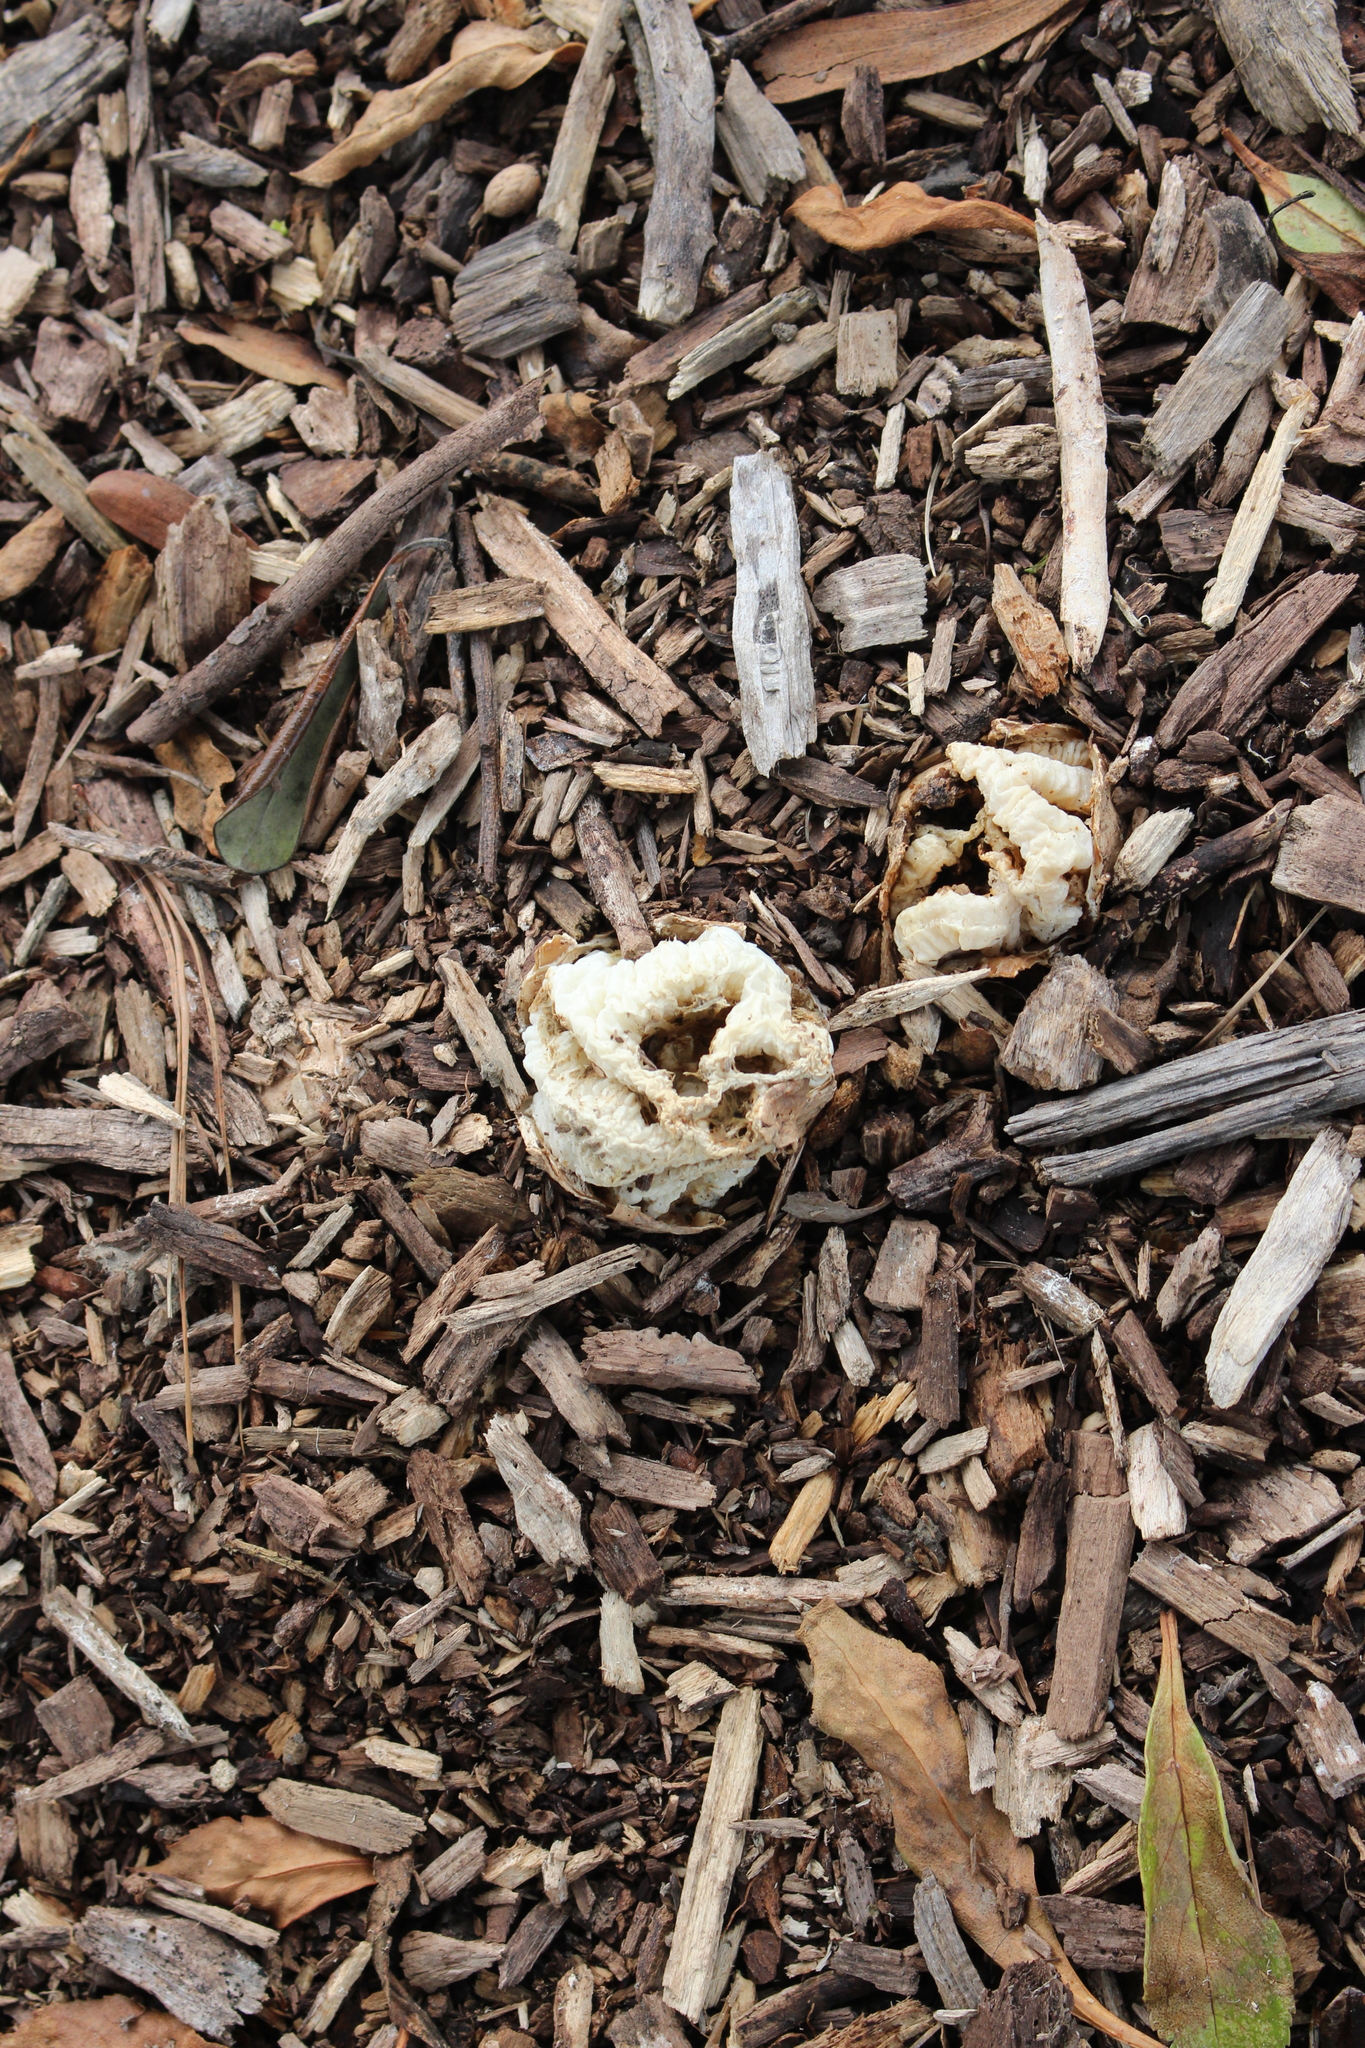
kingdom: Fungi
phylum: Basidiomycota
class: Agaricomycetes
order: Phallales
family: Phallaceae
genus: Ileodictyon
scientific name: Ileodictyon cibarium
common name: Basket fungus
